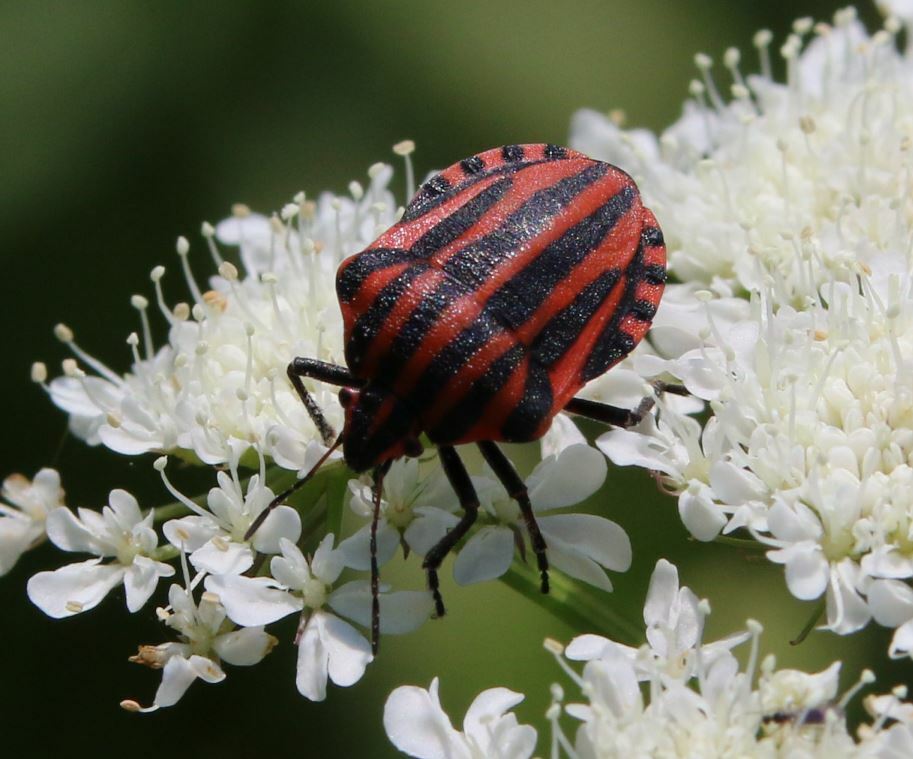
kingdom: Animalia
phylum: Arthropoda
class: Insecta
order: Hemiptera
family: Pentatomidae
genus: Graphosoma
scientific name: Graphosoma italicum
